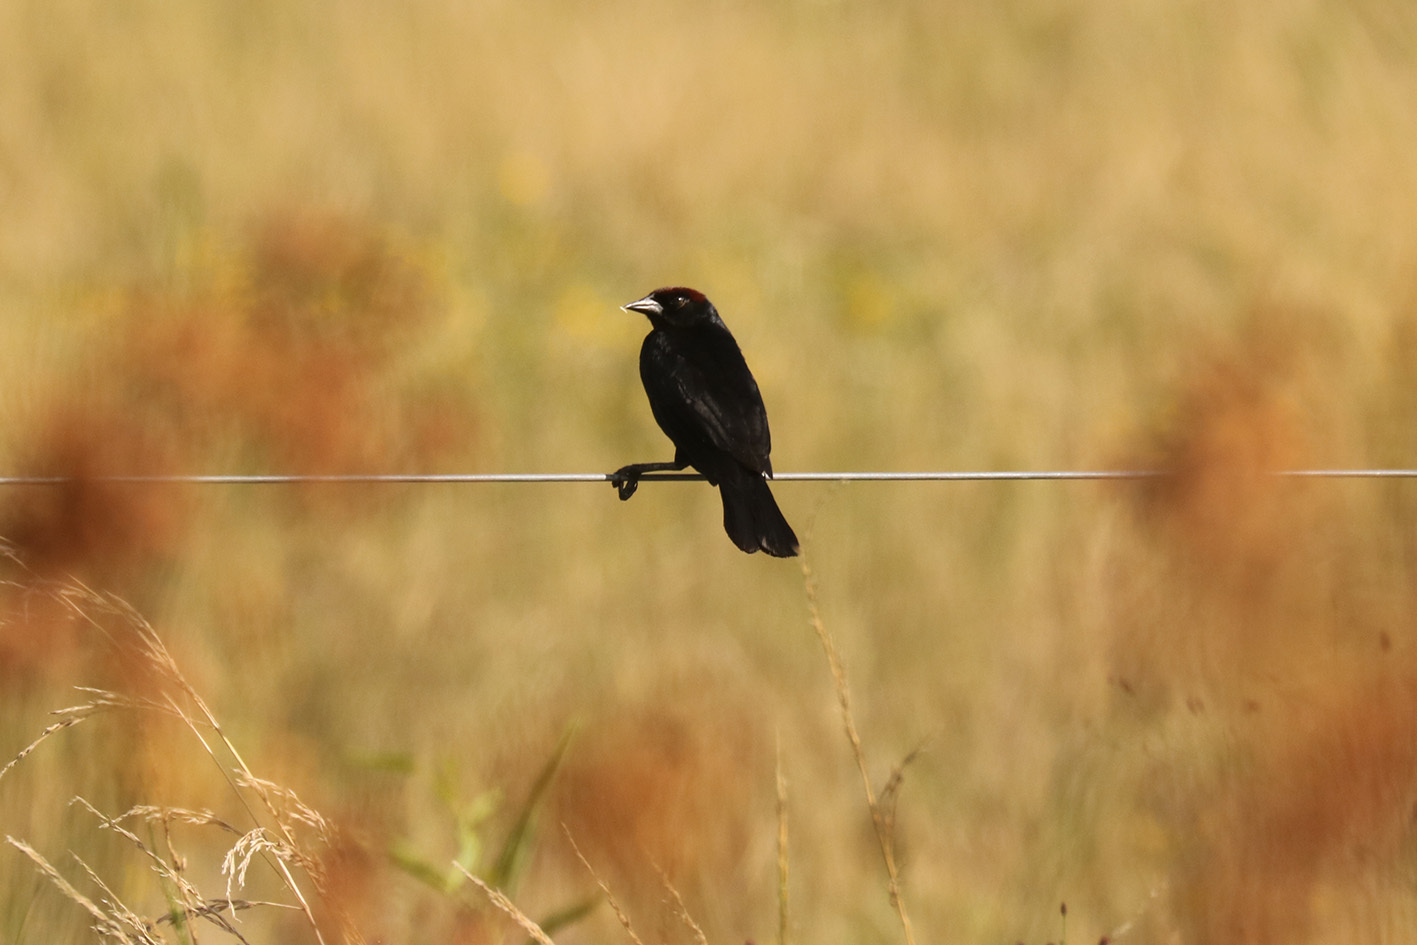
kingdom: Animalia
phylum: Chordata
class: Aves
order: Passeriformes
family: Icteridae
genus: Chrysomus
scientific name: Chrysomus ruficapillus
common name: Chestnut-capped blackbird
